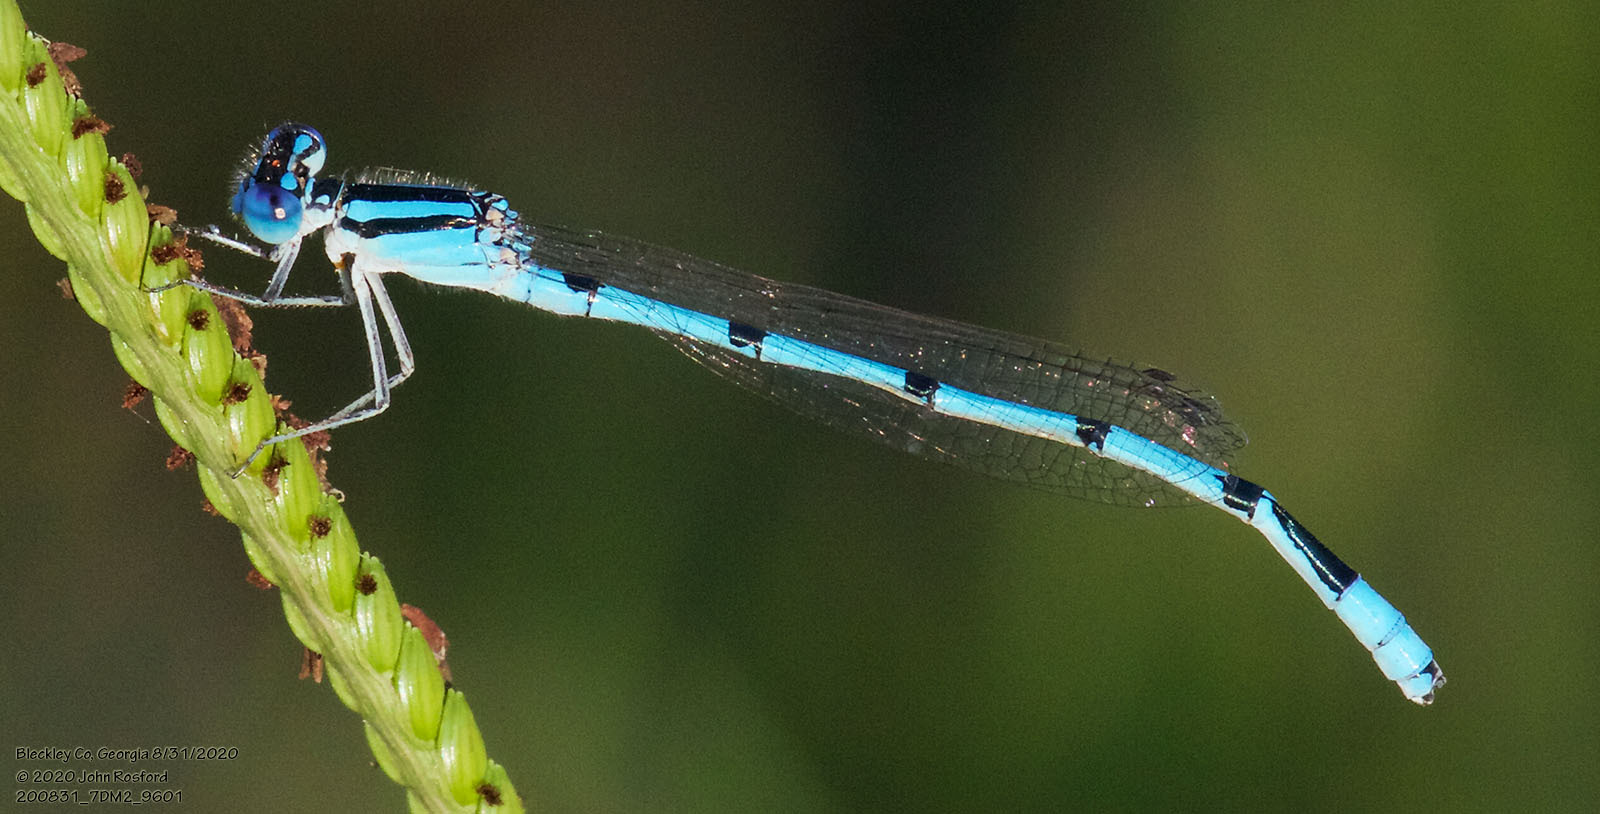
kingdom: Animalia
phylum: Arthropoda
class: Insecta
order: Odonata
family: Coenagrionidae
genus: Enallagma
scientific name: Enallagma doubledayi
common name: Atlantic bluet
